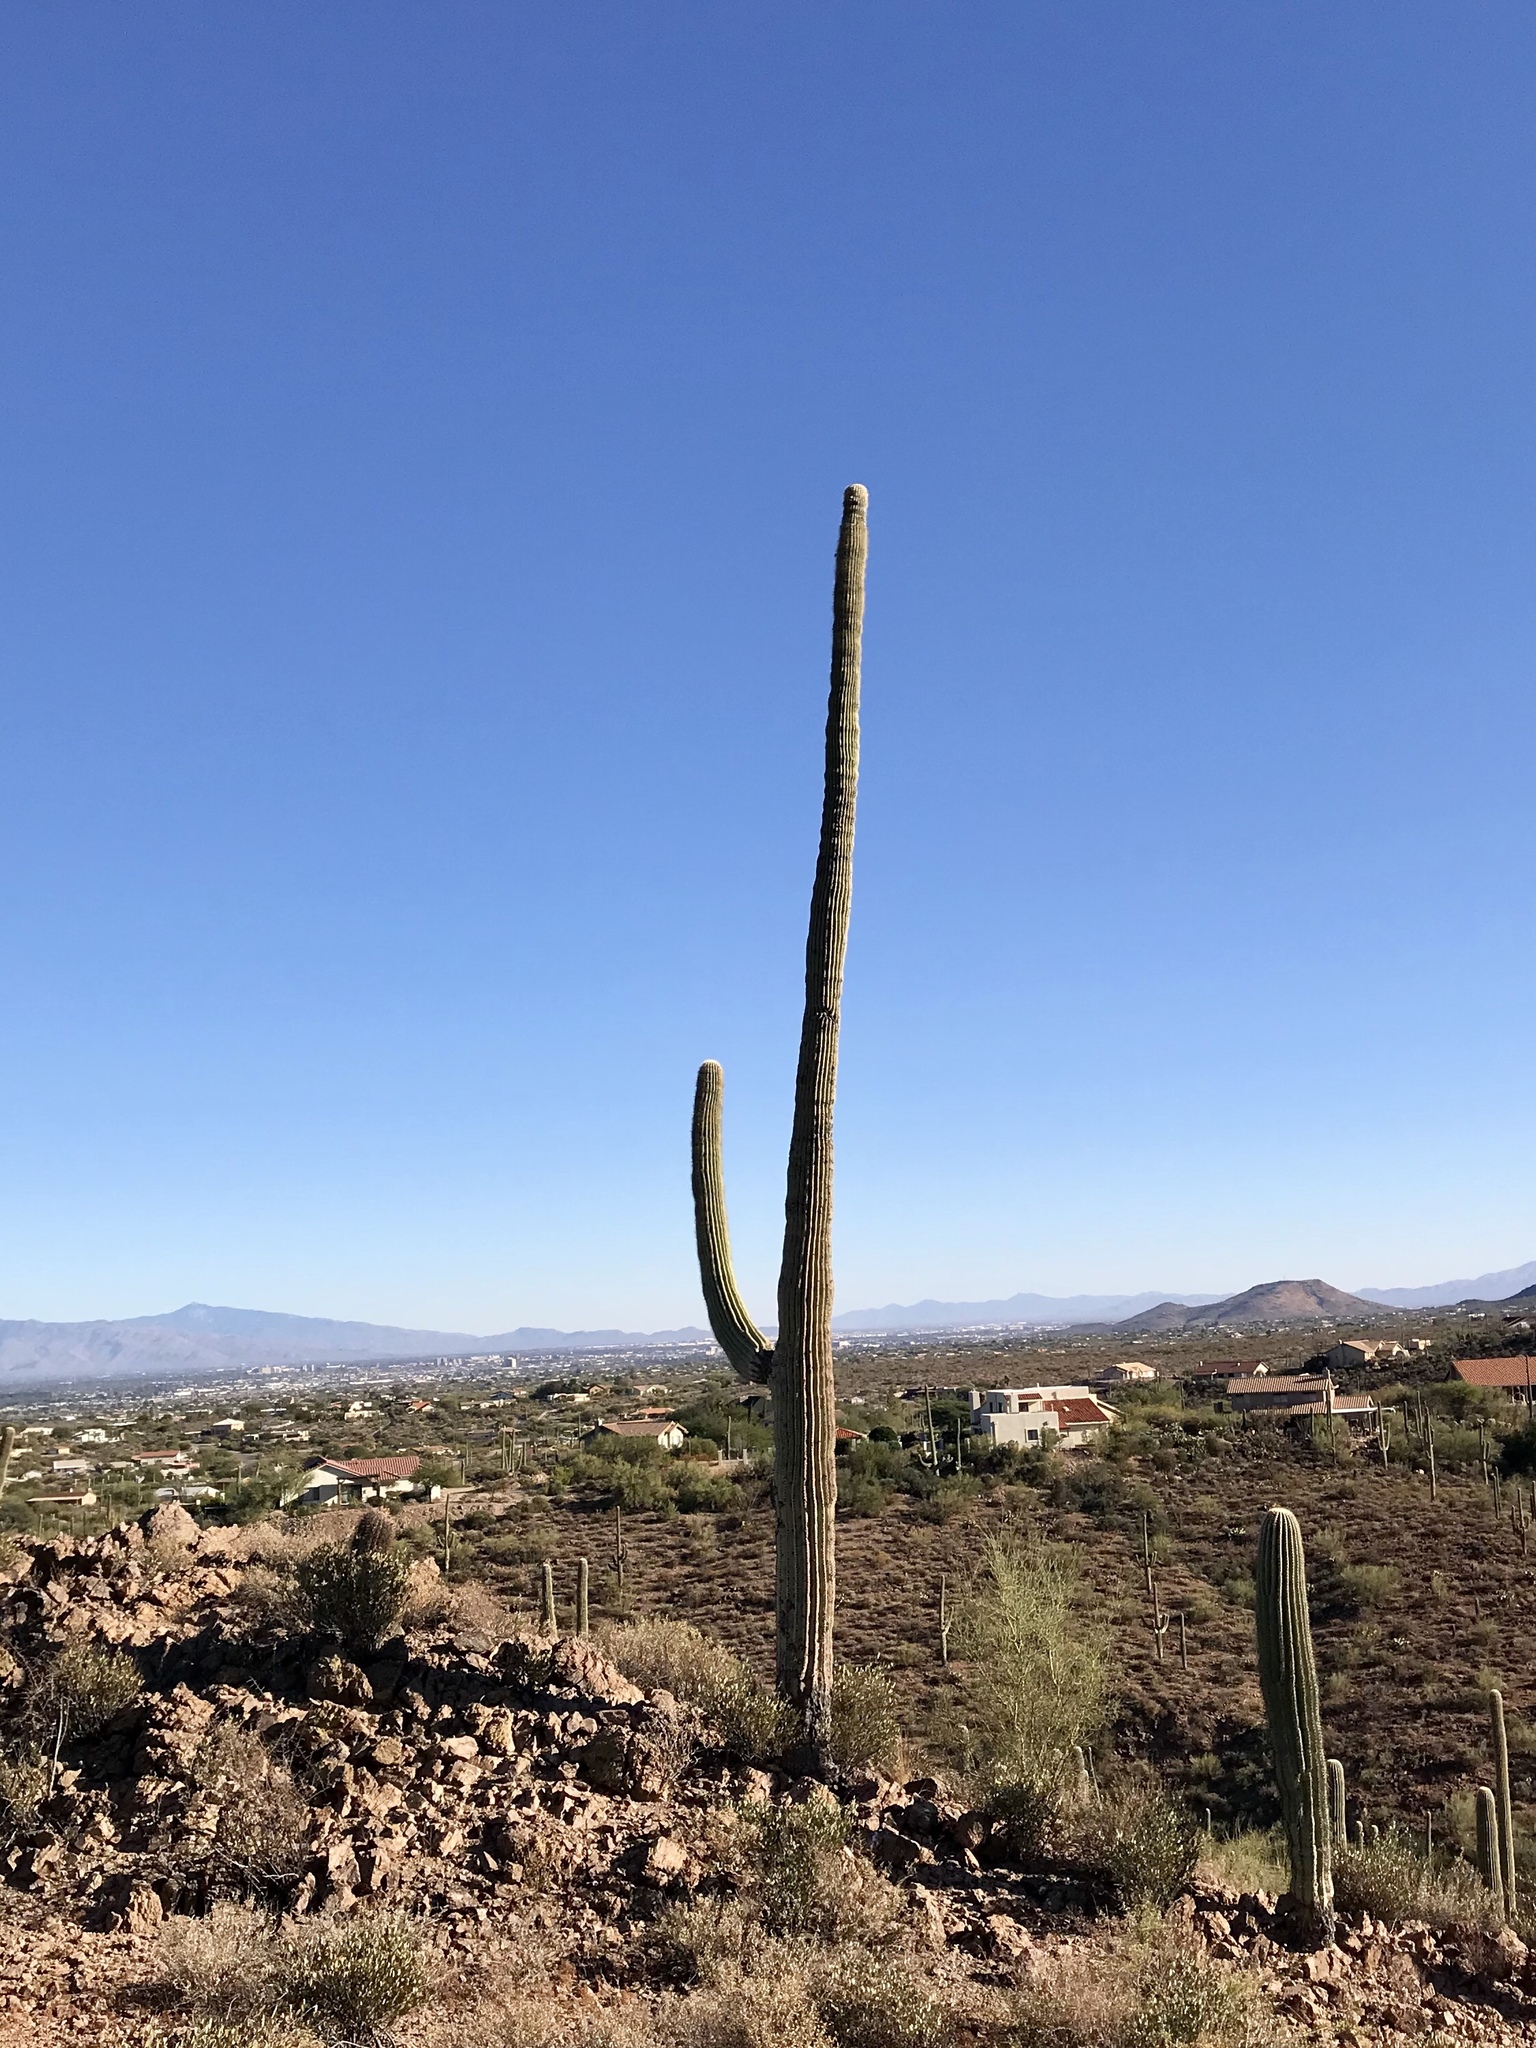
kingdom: Plantae
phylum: Tracheophyta
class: Magnoliopsida
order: Caryophyllales
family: Cactaceae
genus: Carnegiea
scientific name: Carnegiea gigantea
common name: Saguaro
